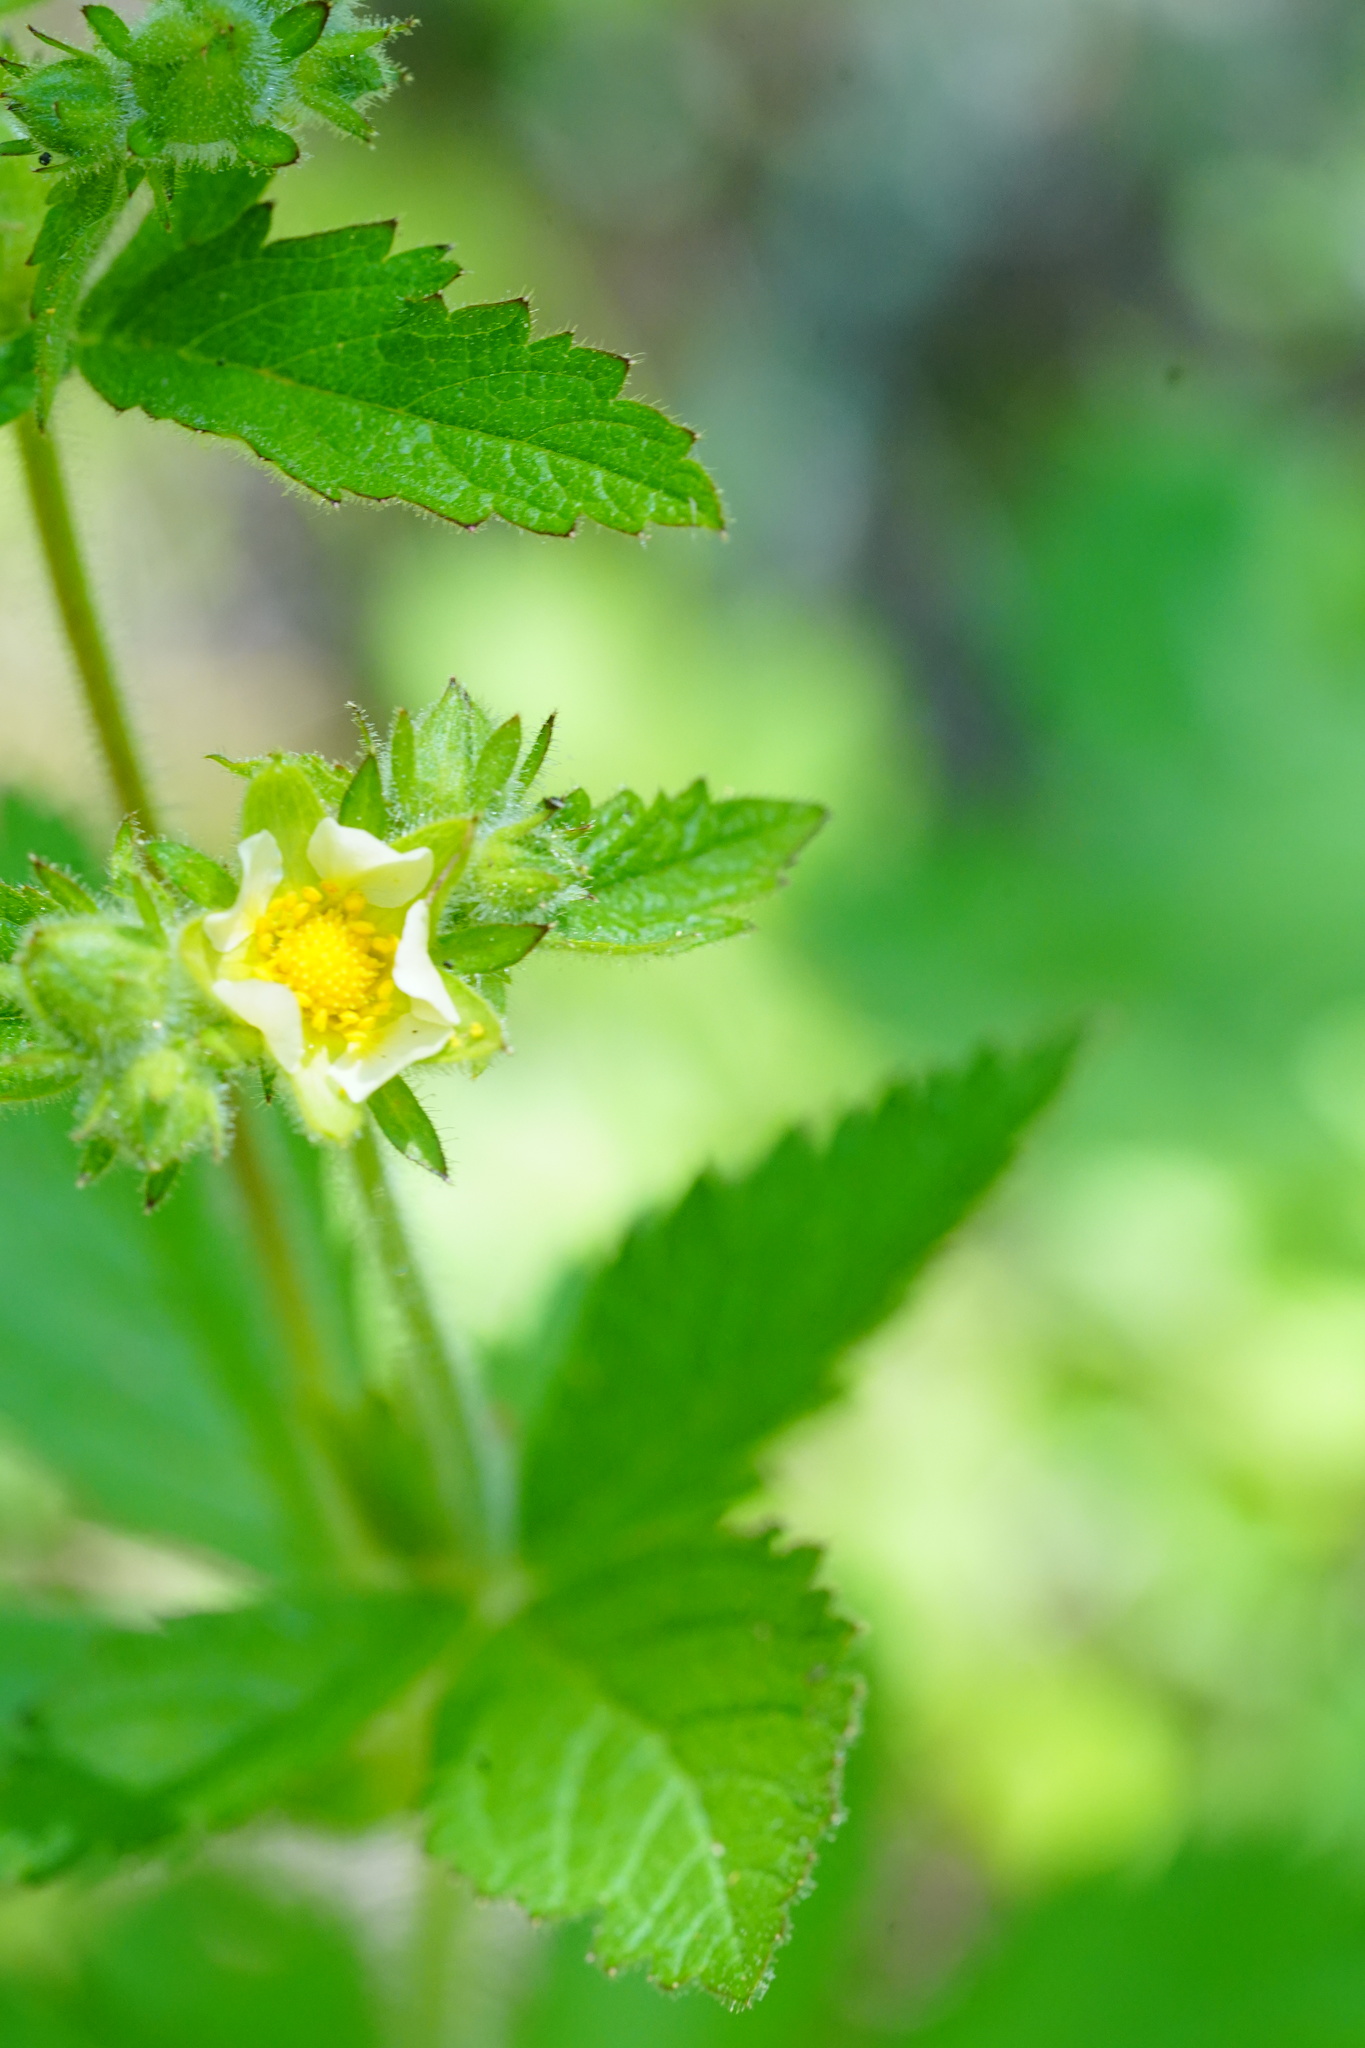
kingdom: Plantae
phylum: Tracheophyta
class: Magnoliopsida
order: Rosales
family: Rosaceae
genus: Drymocallis
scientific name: Drymocallis glandulosa
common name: Sticky cinquefoil
